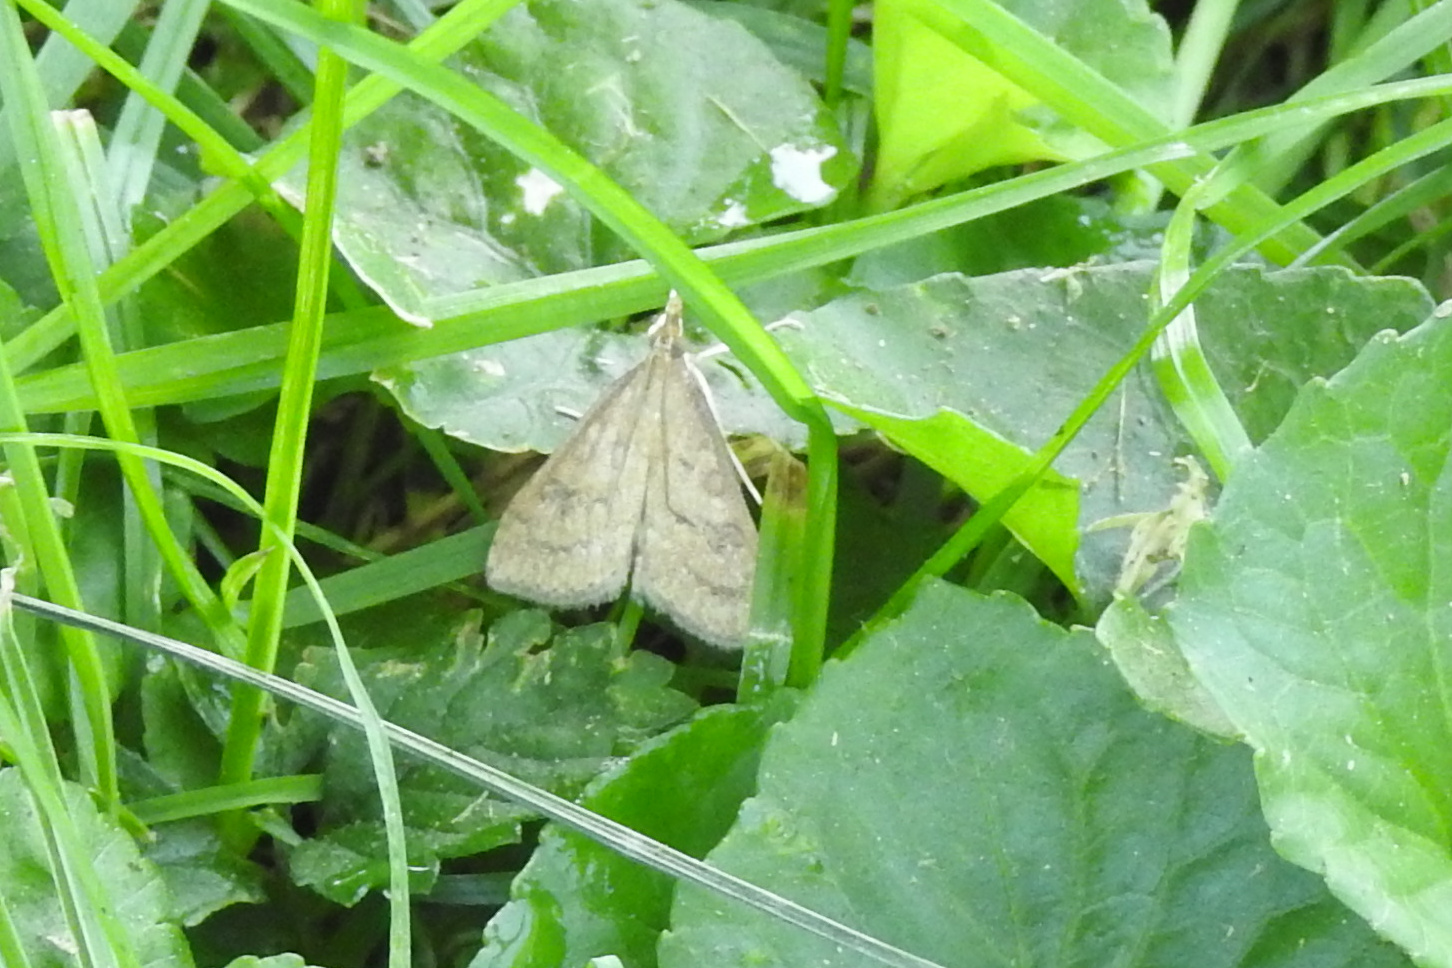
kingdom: Animalia
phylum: Arthropoda
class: Insecta
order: Lepidoptera
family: Crambidae
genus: Udea
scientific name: Udea rubigalis
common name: Celery leaftier moth
